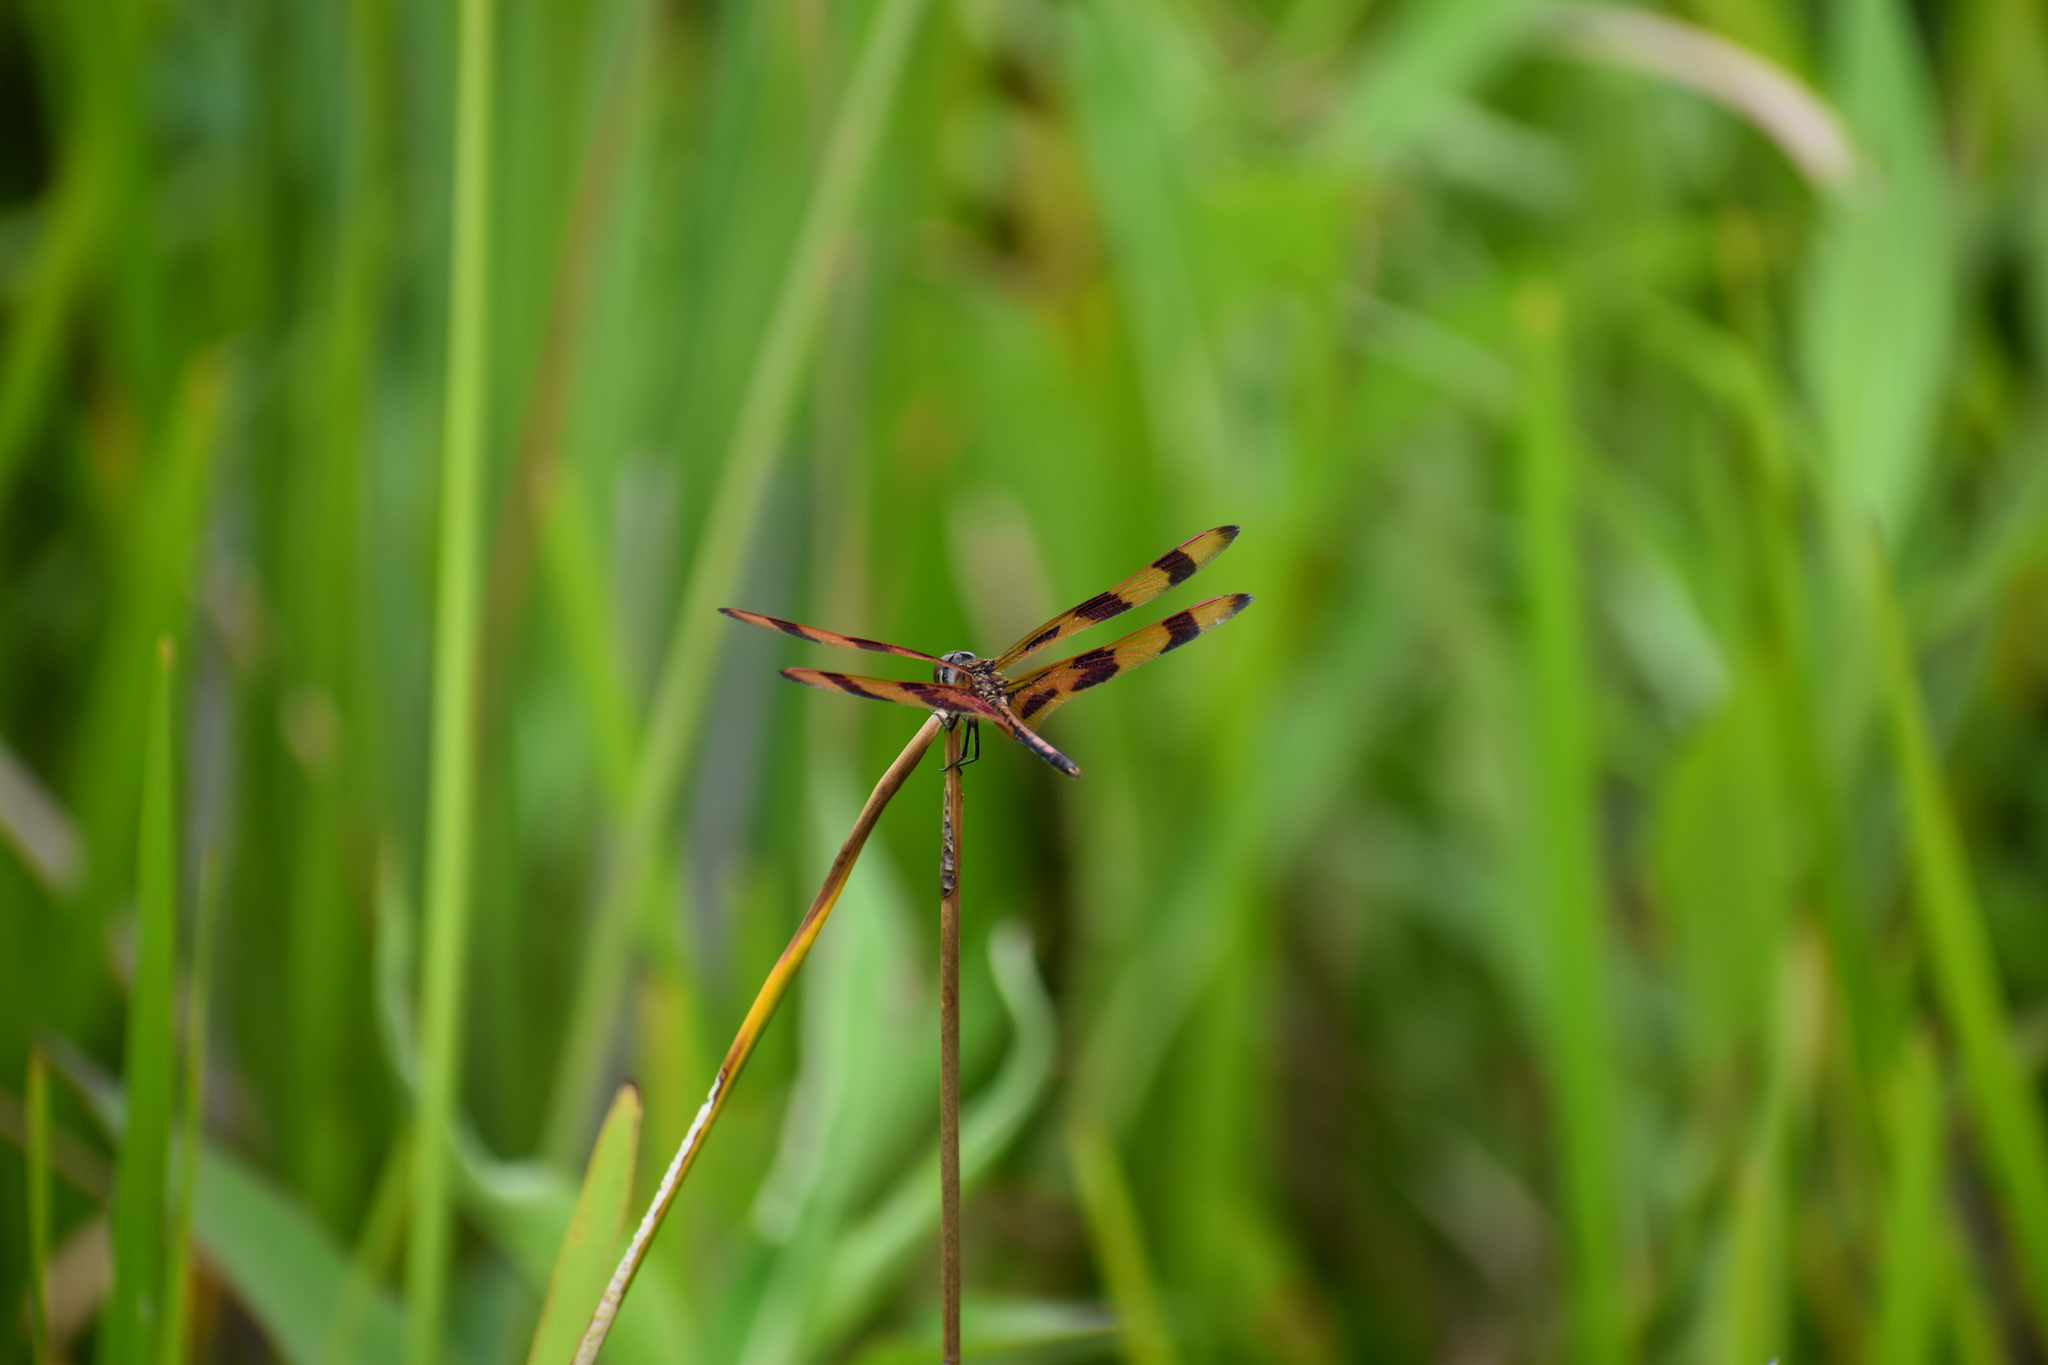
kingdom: Animalia
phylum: Arthropoda
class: Insecta
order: Odonata
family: Libellulidae
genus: Celithemis
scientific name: Celithemis eponina
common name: Halloween pennant
